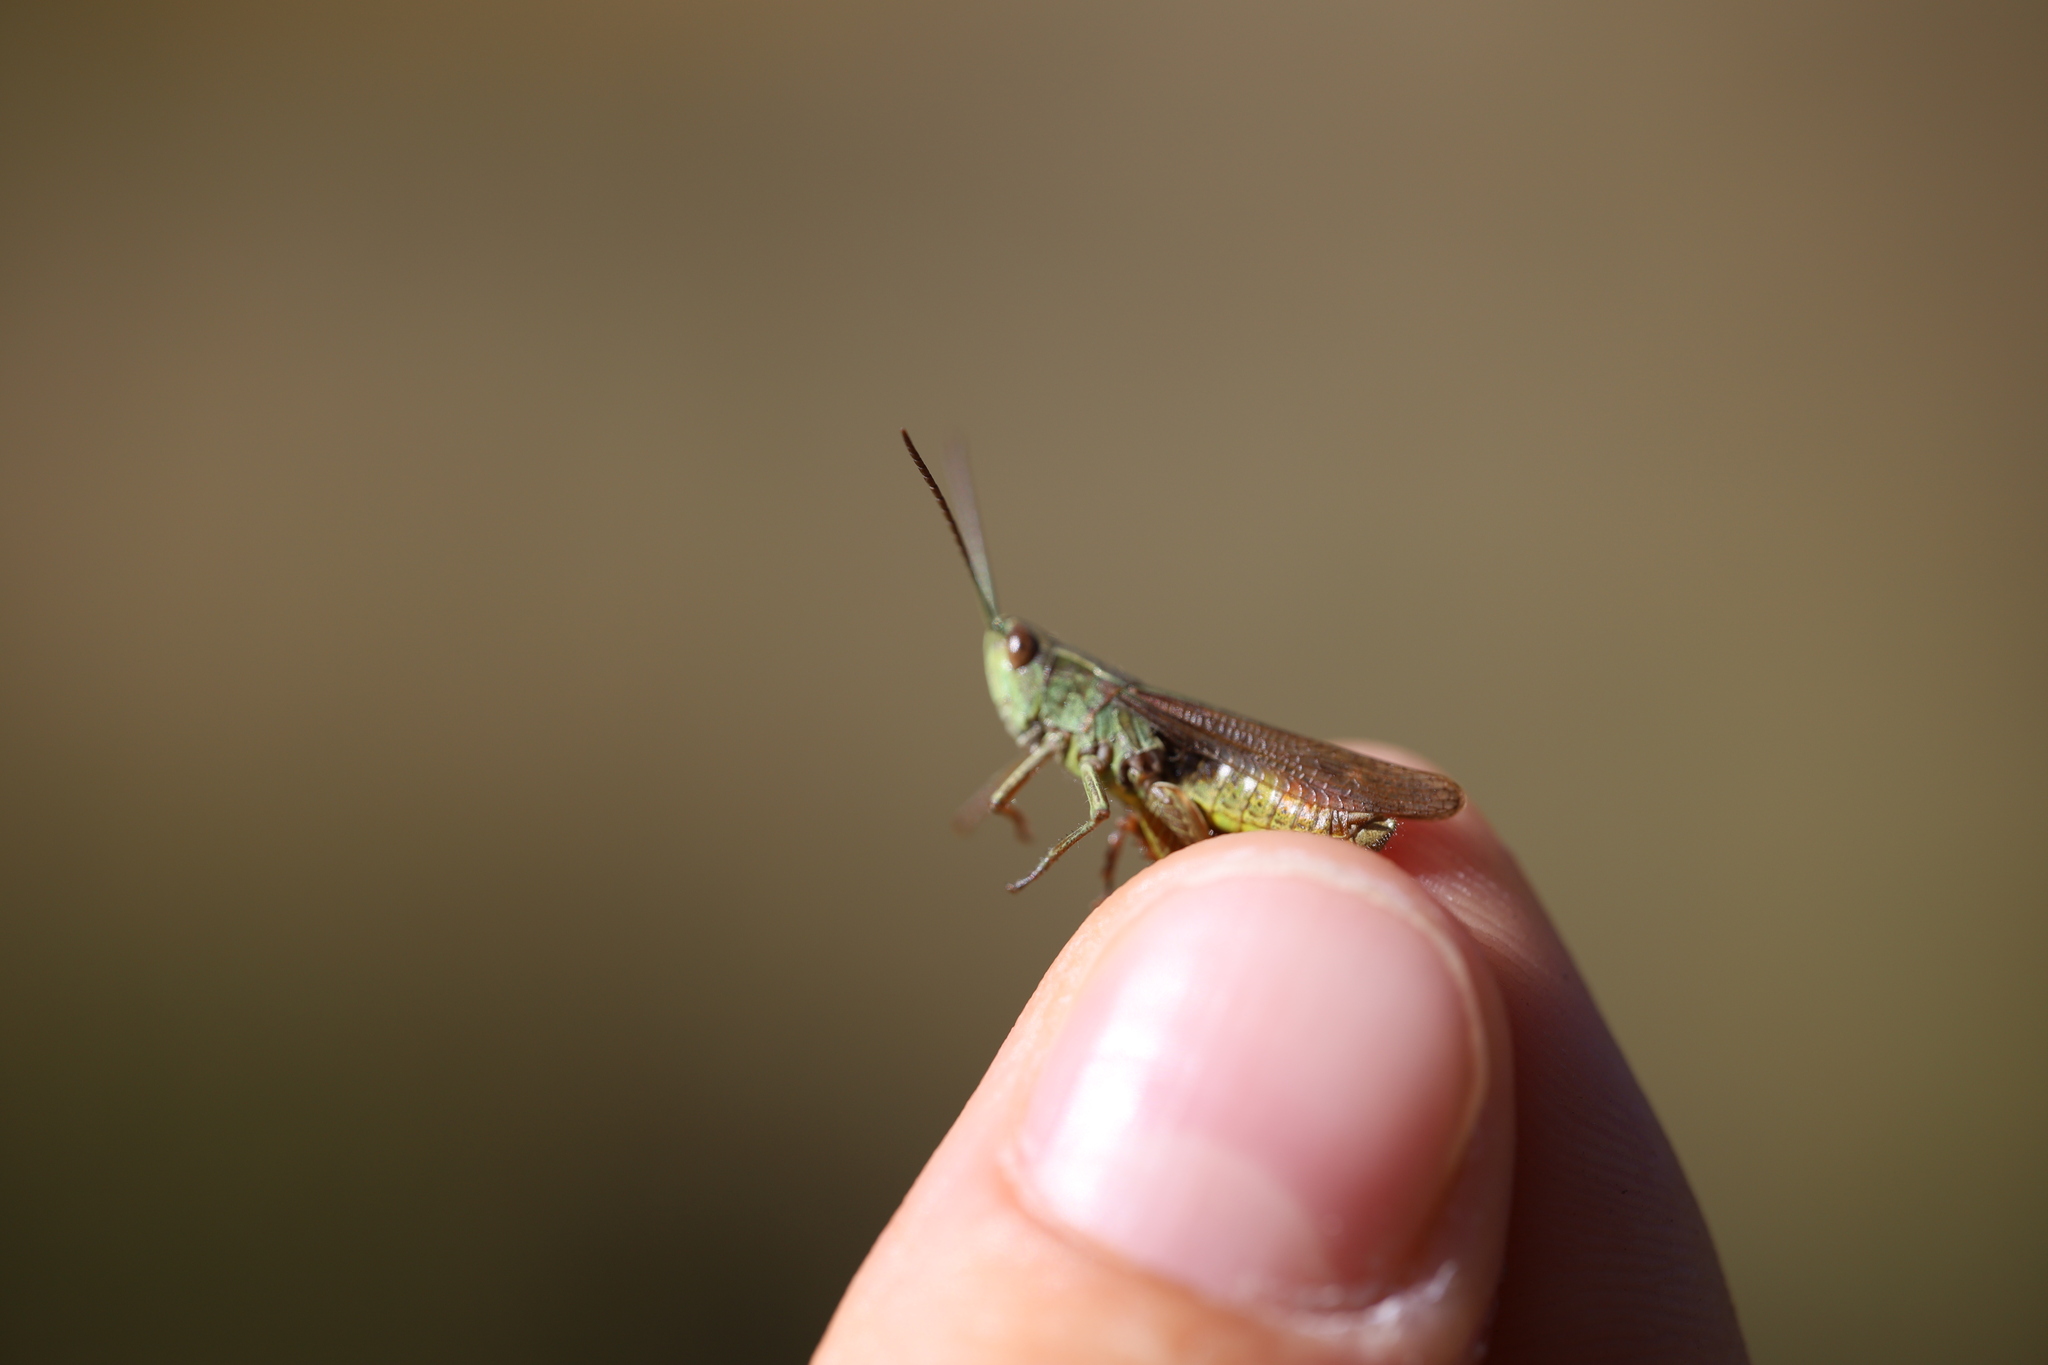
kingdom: Animalia
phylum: Arthropoda
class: Insecta
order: Orthoptera
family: Acrididae
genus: Chorthippus
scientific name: Chorthippus dorsatus
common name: Steppe grasshopper
